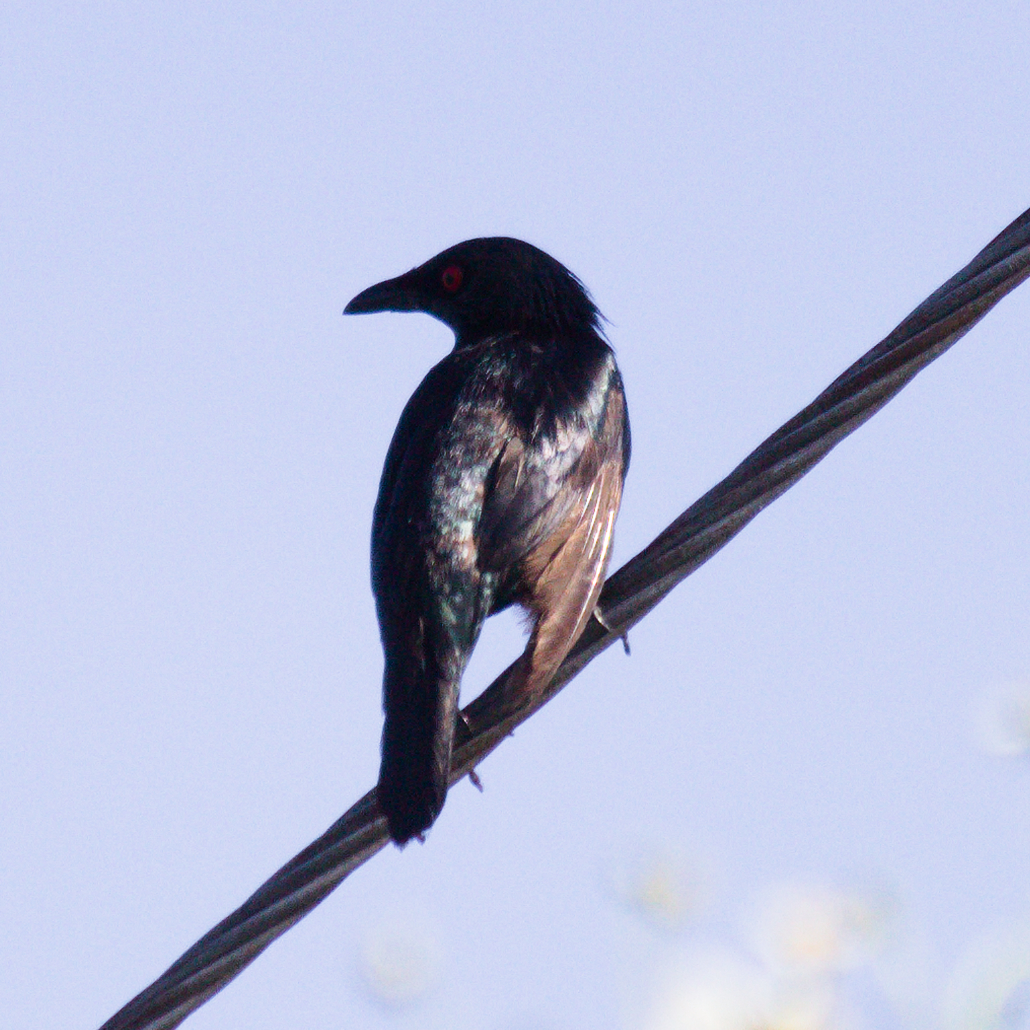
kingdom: Animalia
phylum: Chordata
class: Aves
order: Passeriformes
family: Sturnidae
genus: Aplonis
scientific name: Aplonis panayensis
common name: Asian glossy starling
